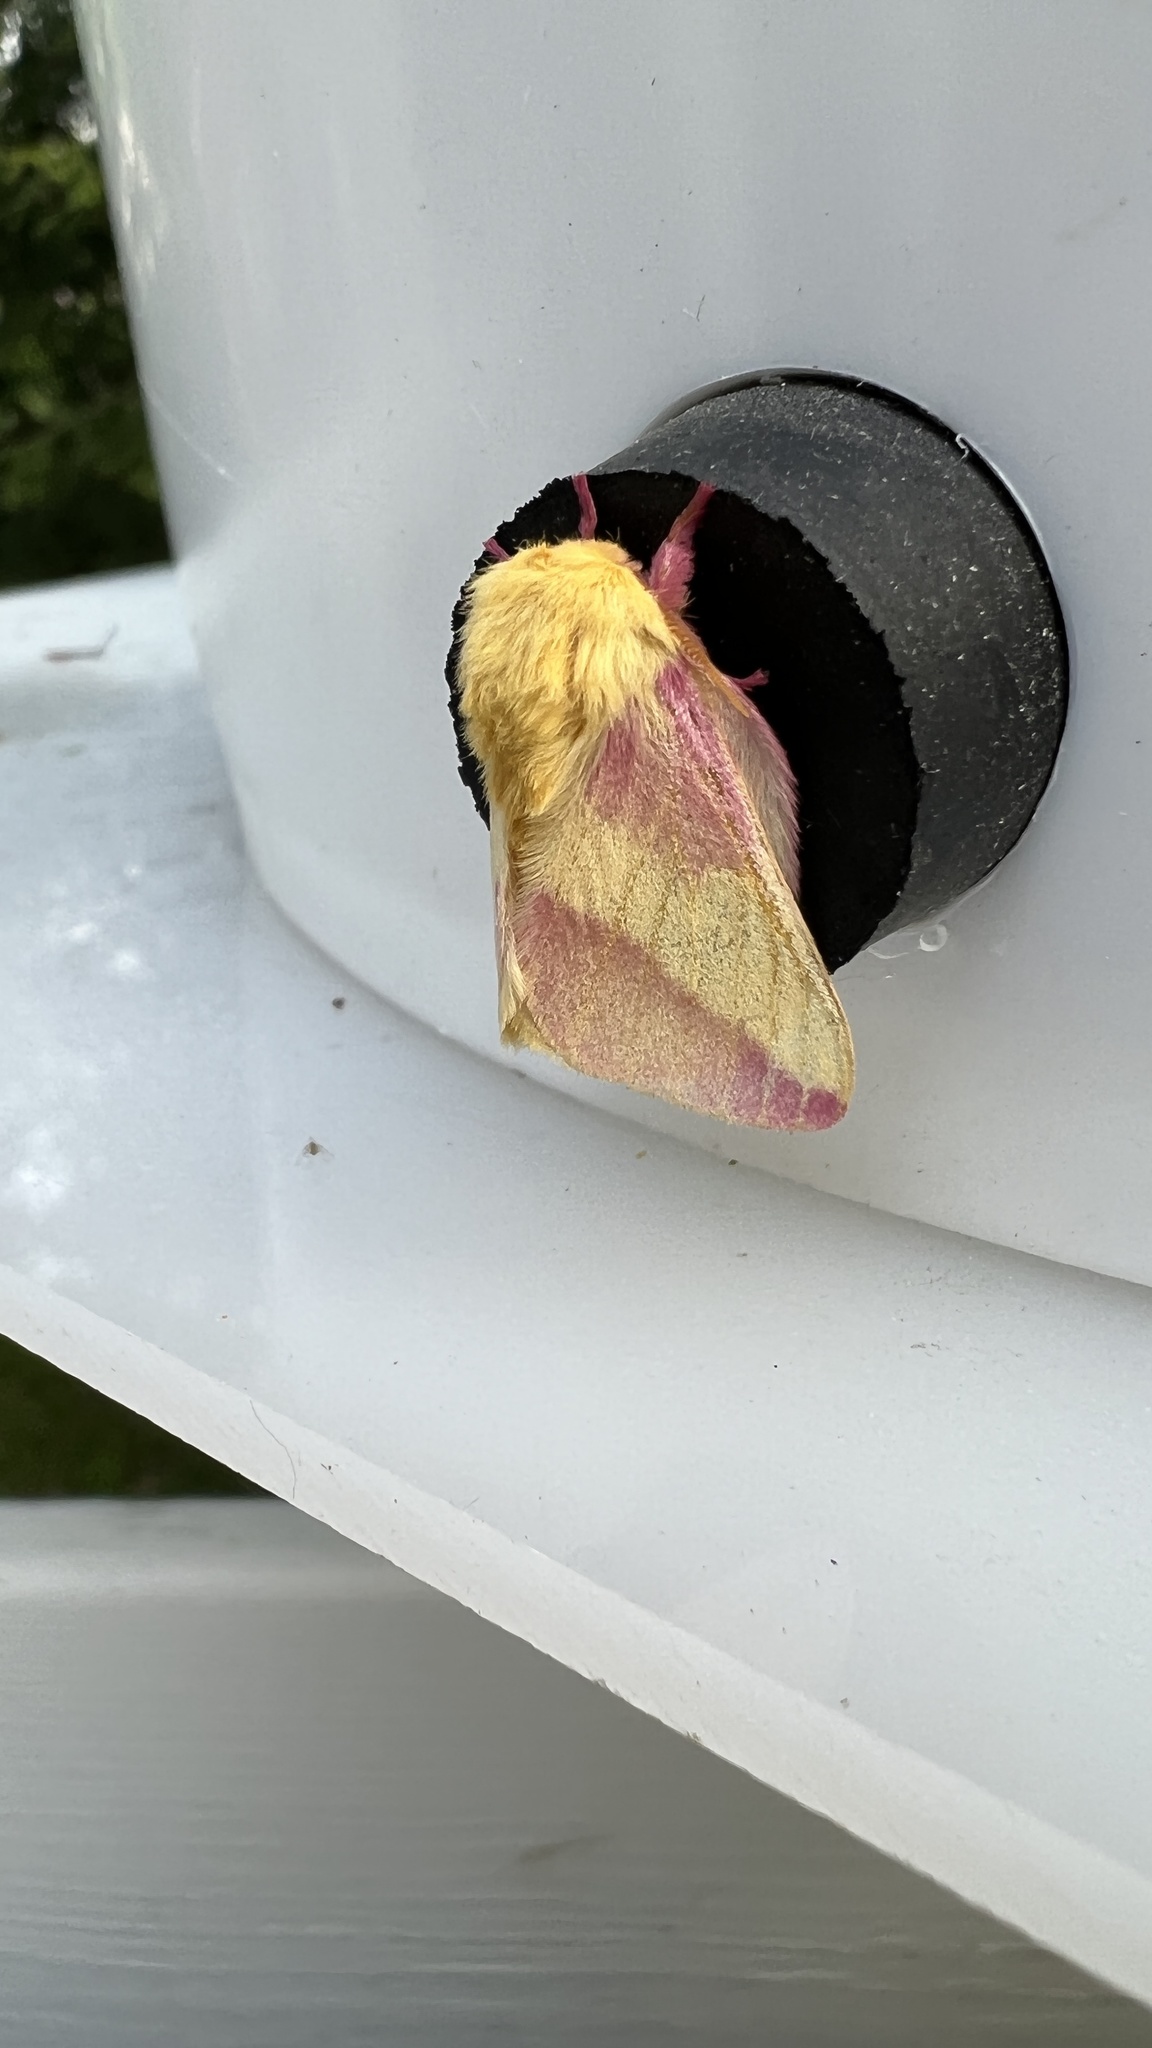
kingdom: Animalia
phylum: Arthropoda
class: Insecta
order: Lepidoptera
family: Saturniidae
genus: Dryocampa
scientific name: Dryocampa rubicunda
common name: Rosy maple moth
